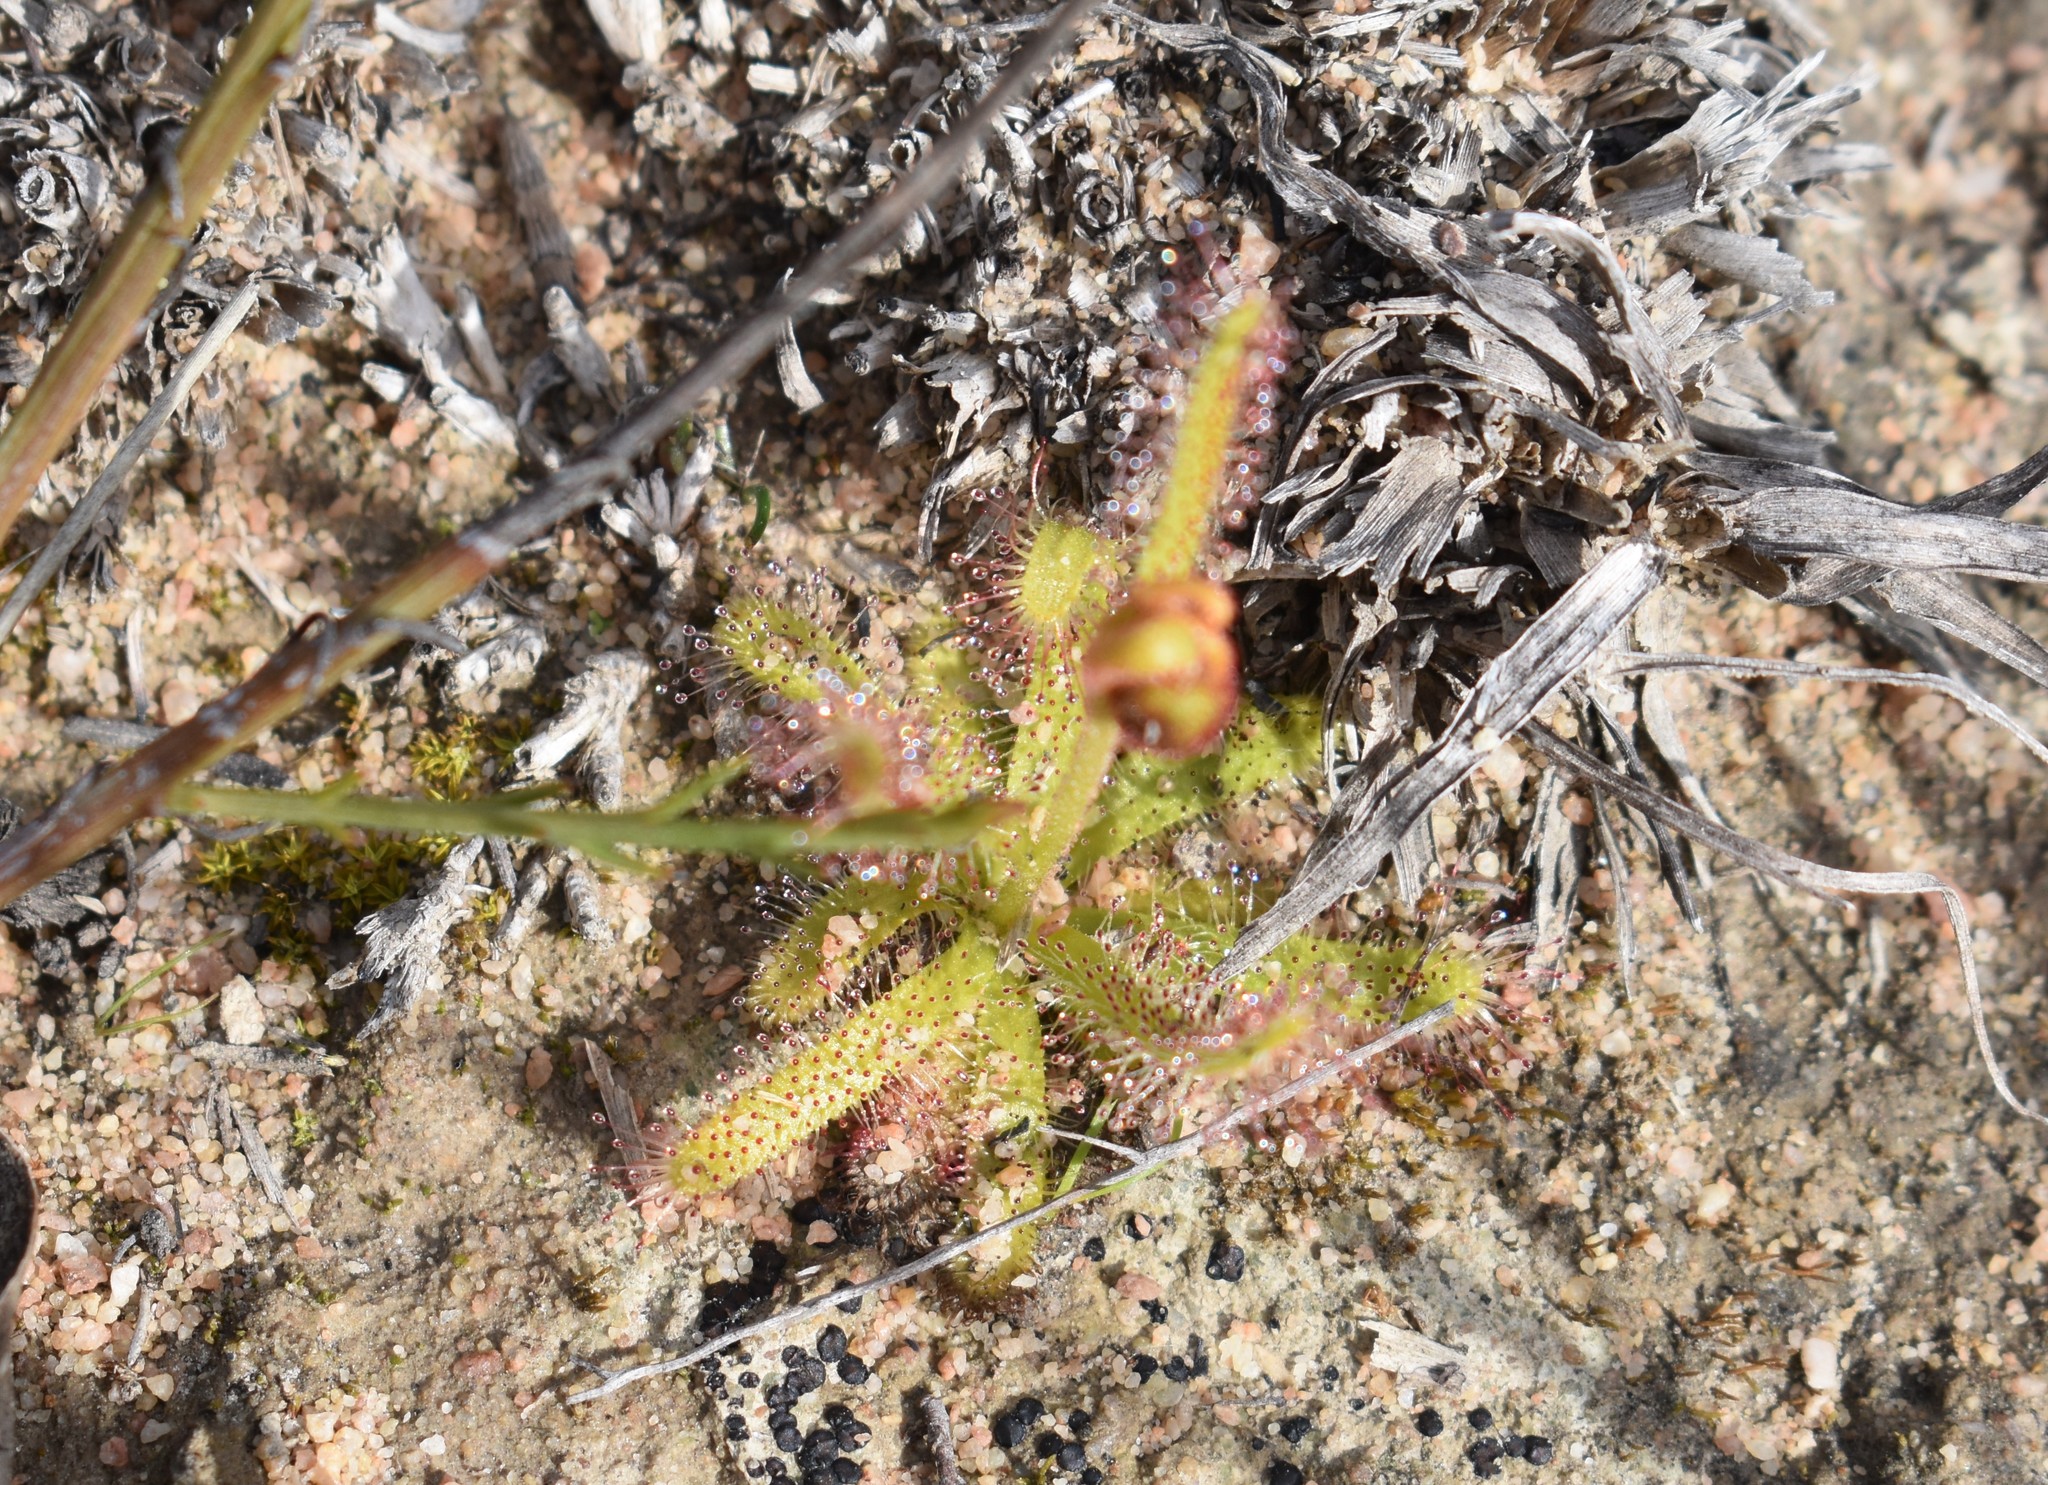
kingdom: Plantae
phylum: Tracheophyta
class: Magnoliopsida
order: Caryophyllales
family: Droseraceae
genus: Drosera
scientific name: Drosera cistiflora
